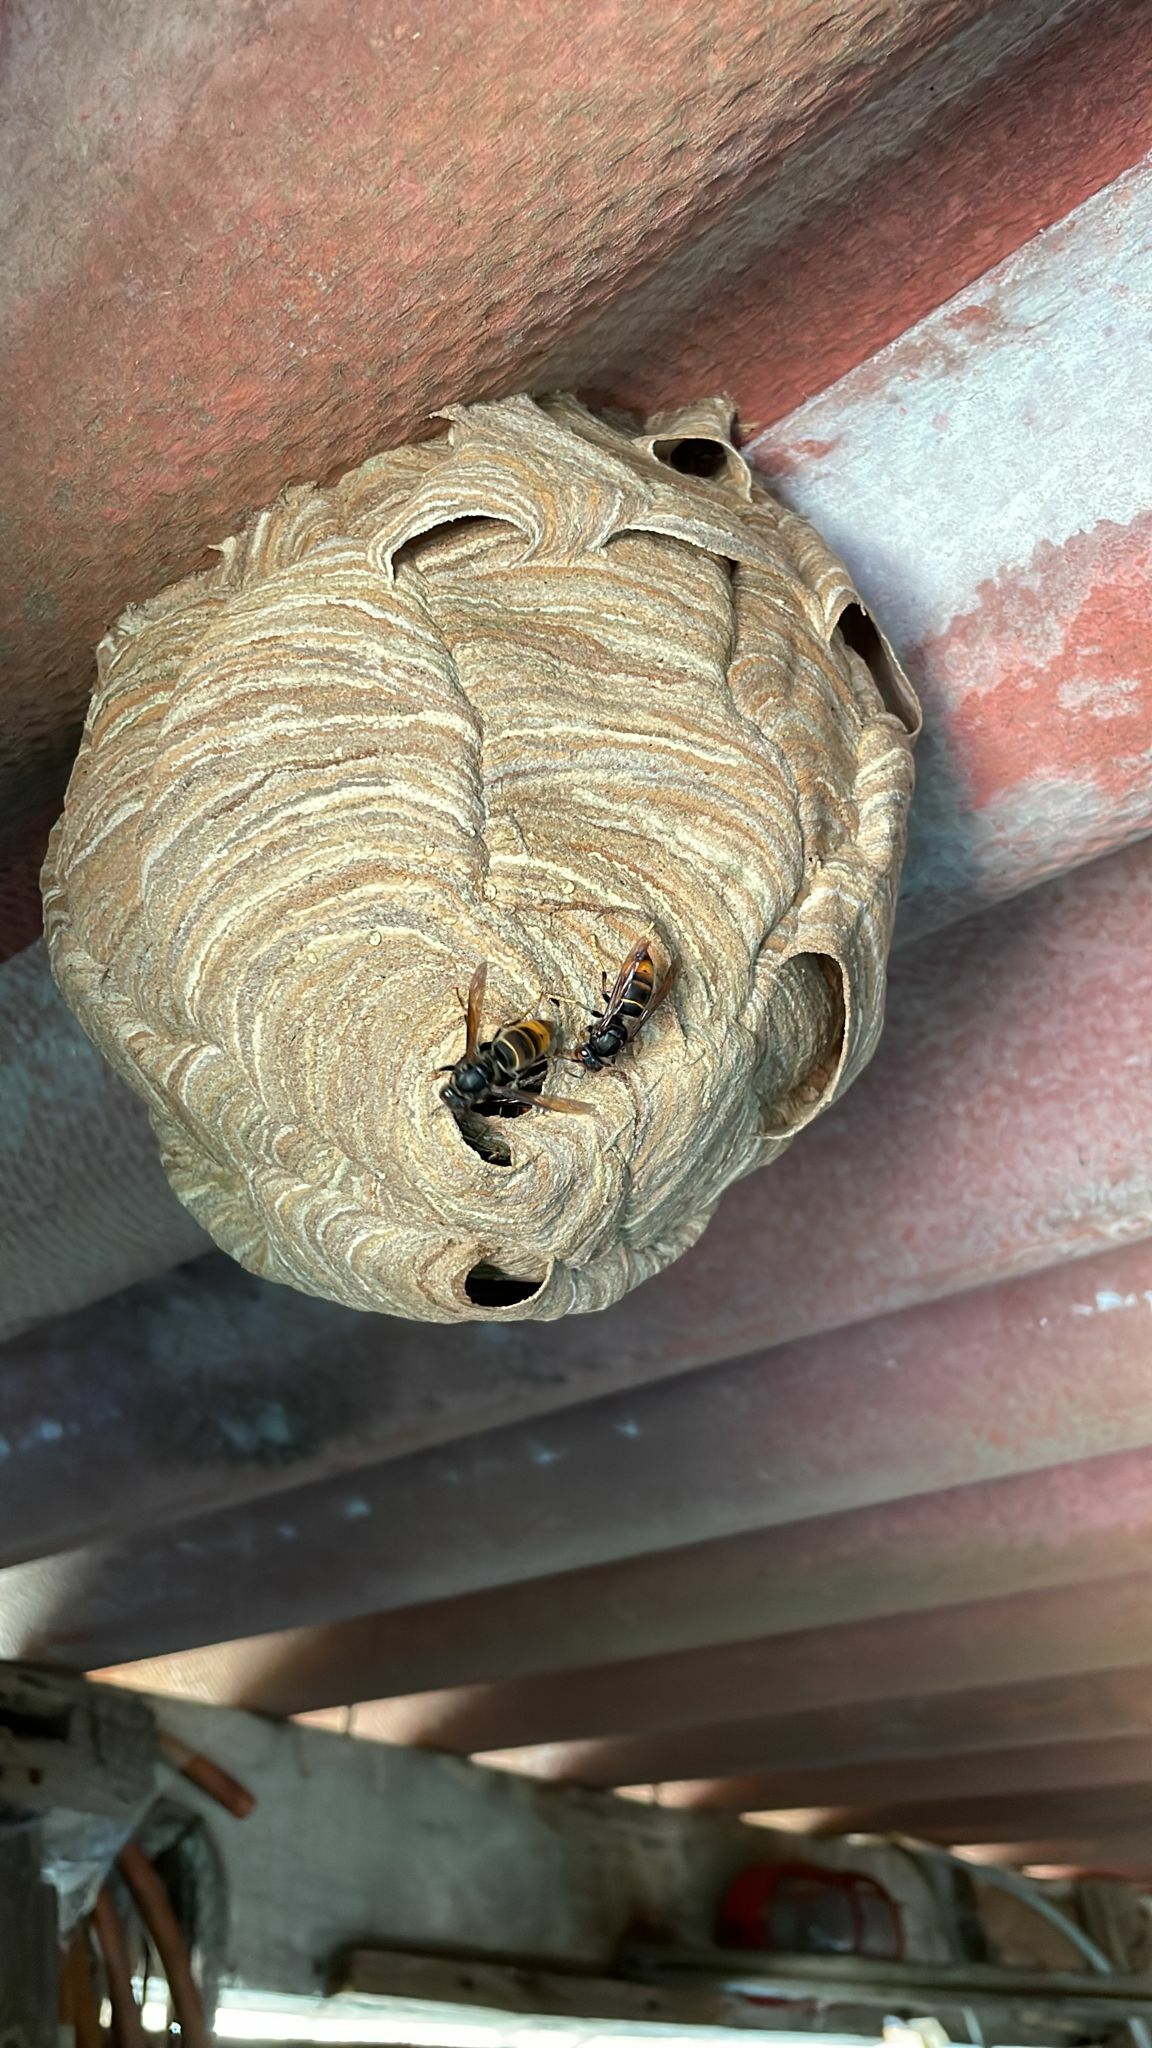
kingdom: Animalia
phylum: Arthropoda
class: Insecta
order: Hymenoptera
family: Vespidae
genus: Vespa
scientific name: Vespa velutina
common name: Asian hornet
